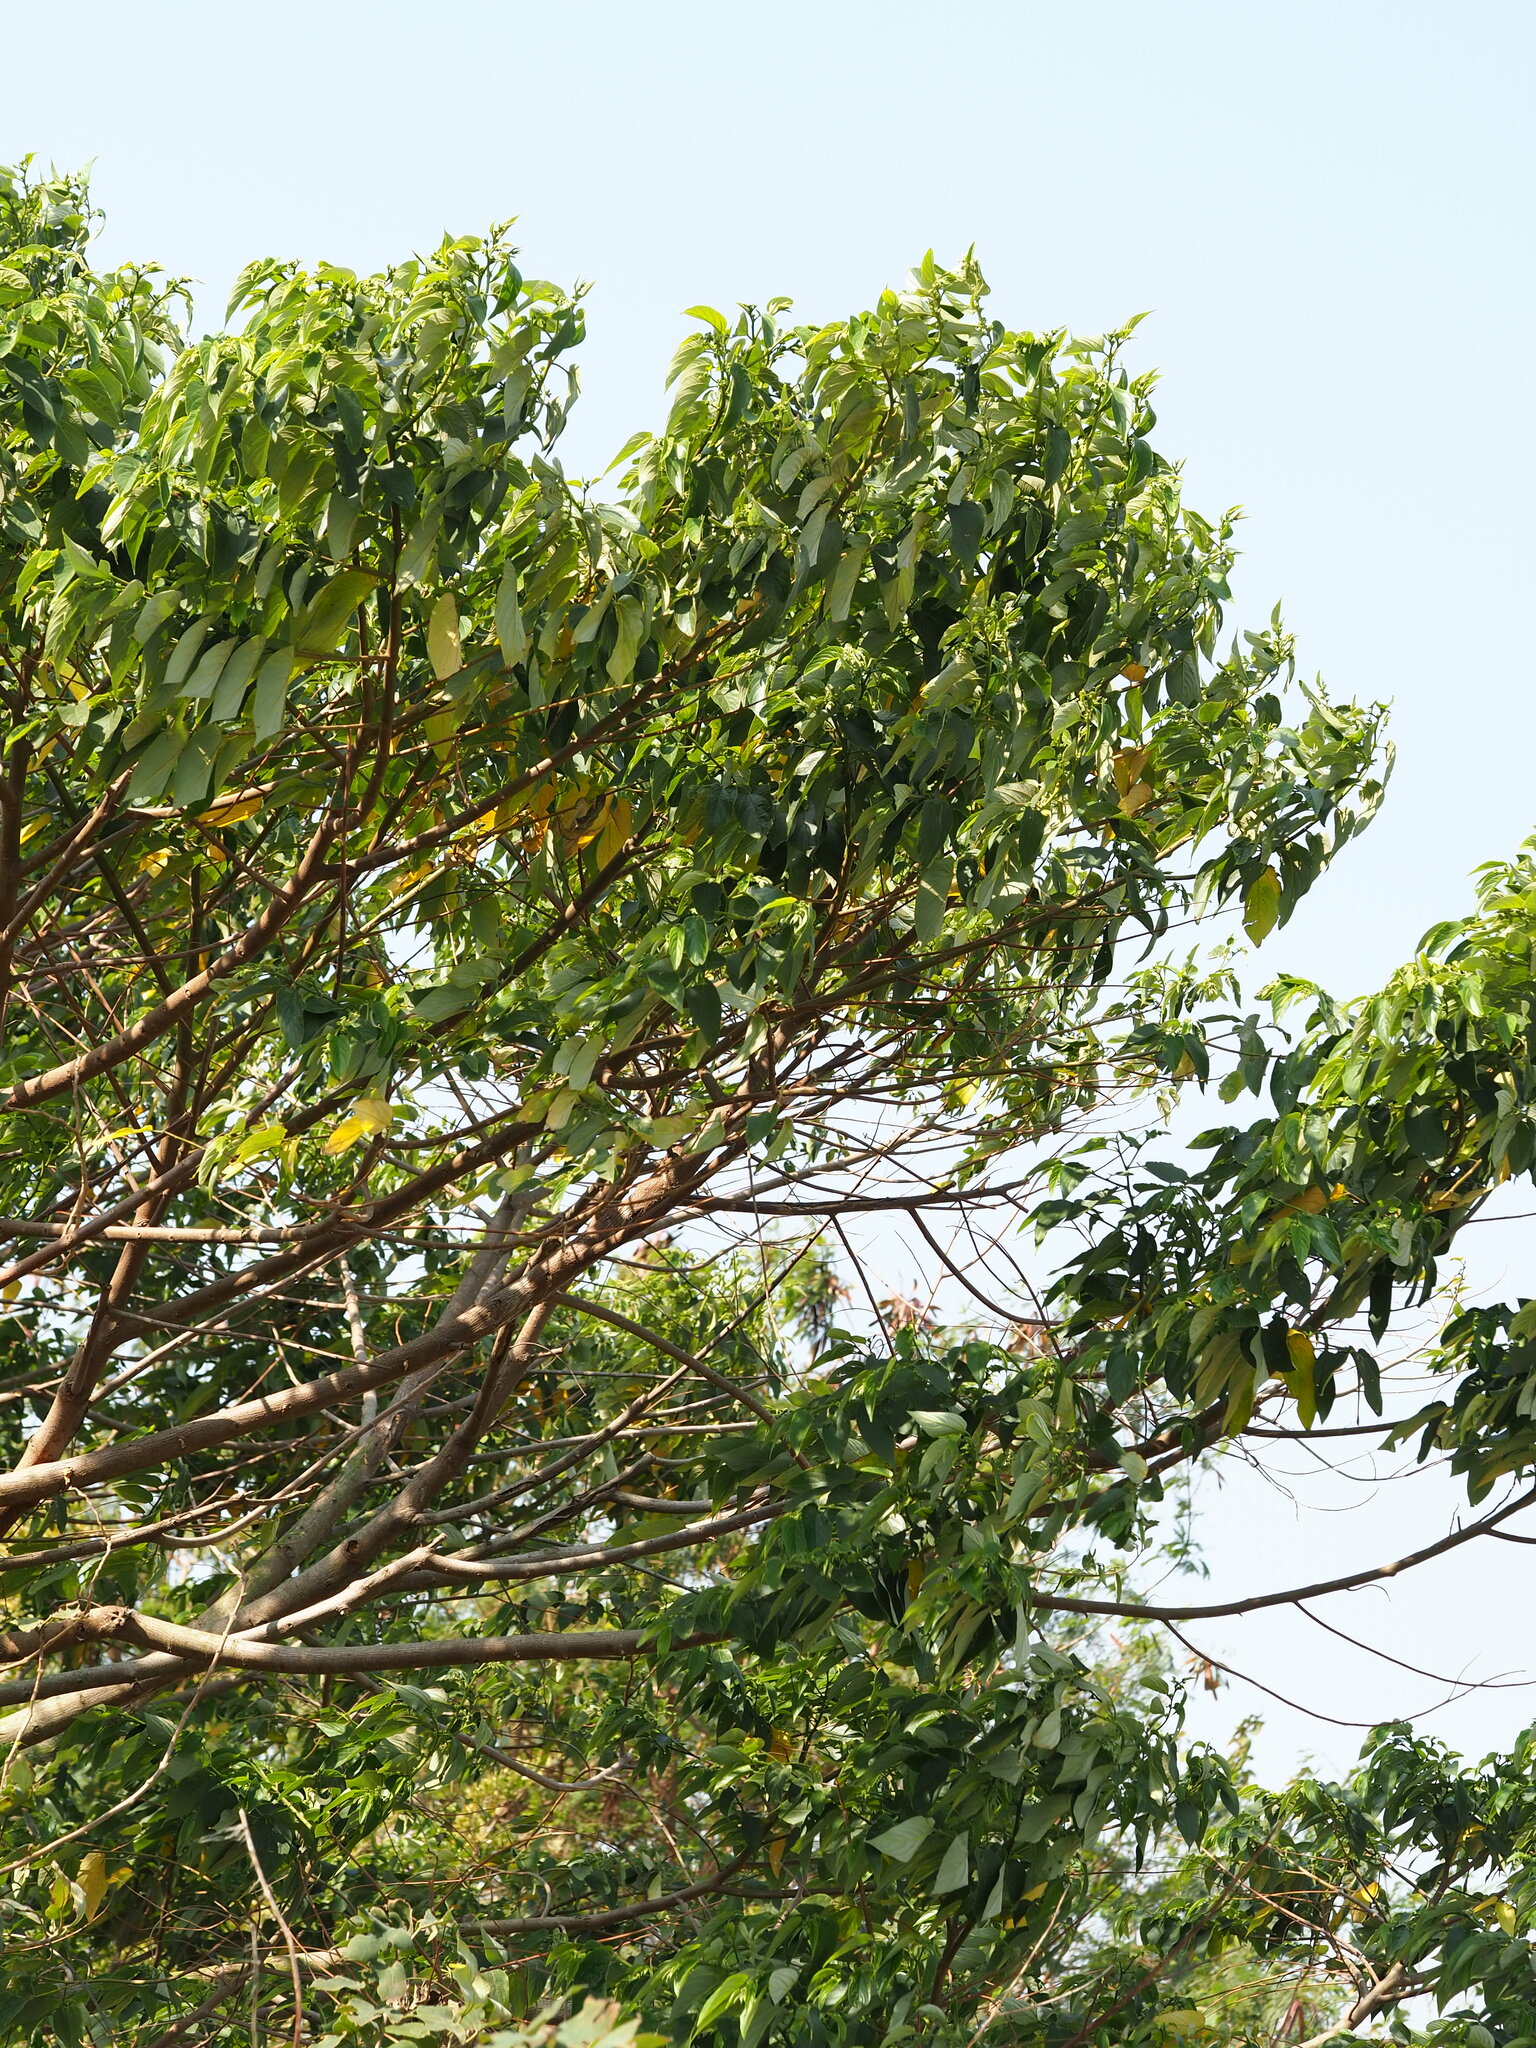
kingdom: Plantae
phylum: Tracheophyta
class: Magnoliopsida
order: Rosales
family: Cannabaceae
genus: Trema
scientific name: Trema orientale
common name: Indian charcoal tree
